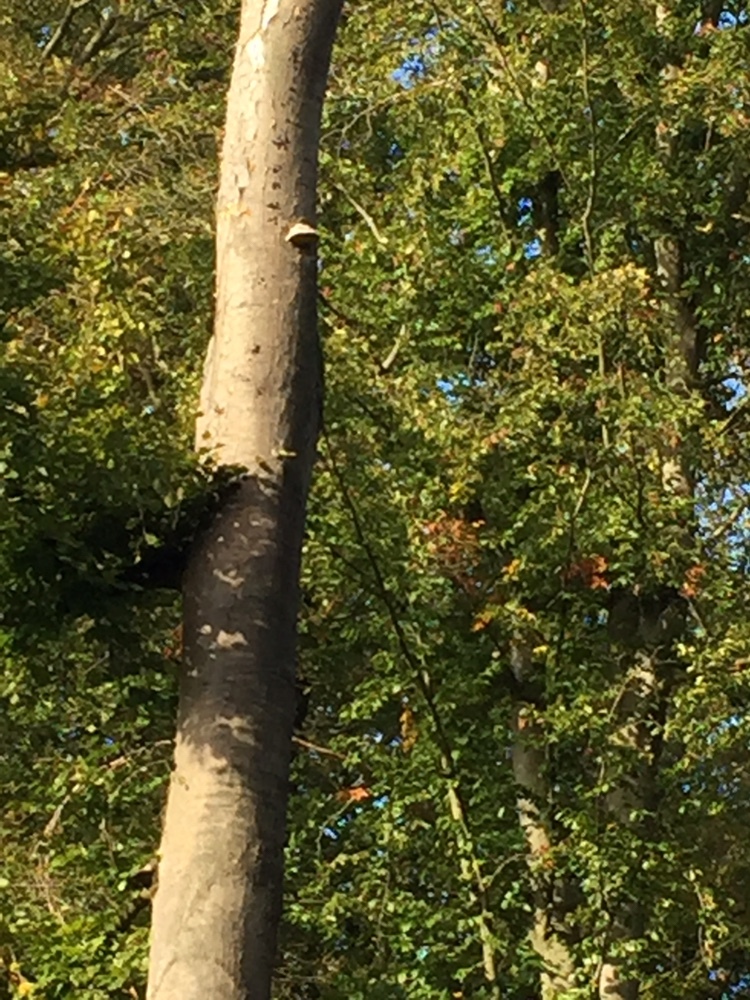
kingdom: Fungi
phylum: Basidiomycota
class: Agaricomycetes
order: Polyporales
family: Polyporaceae
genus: Fomes
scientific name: Fomes fomentarius
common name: Hoof fungus
